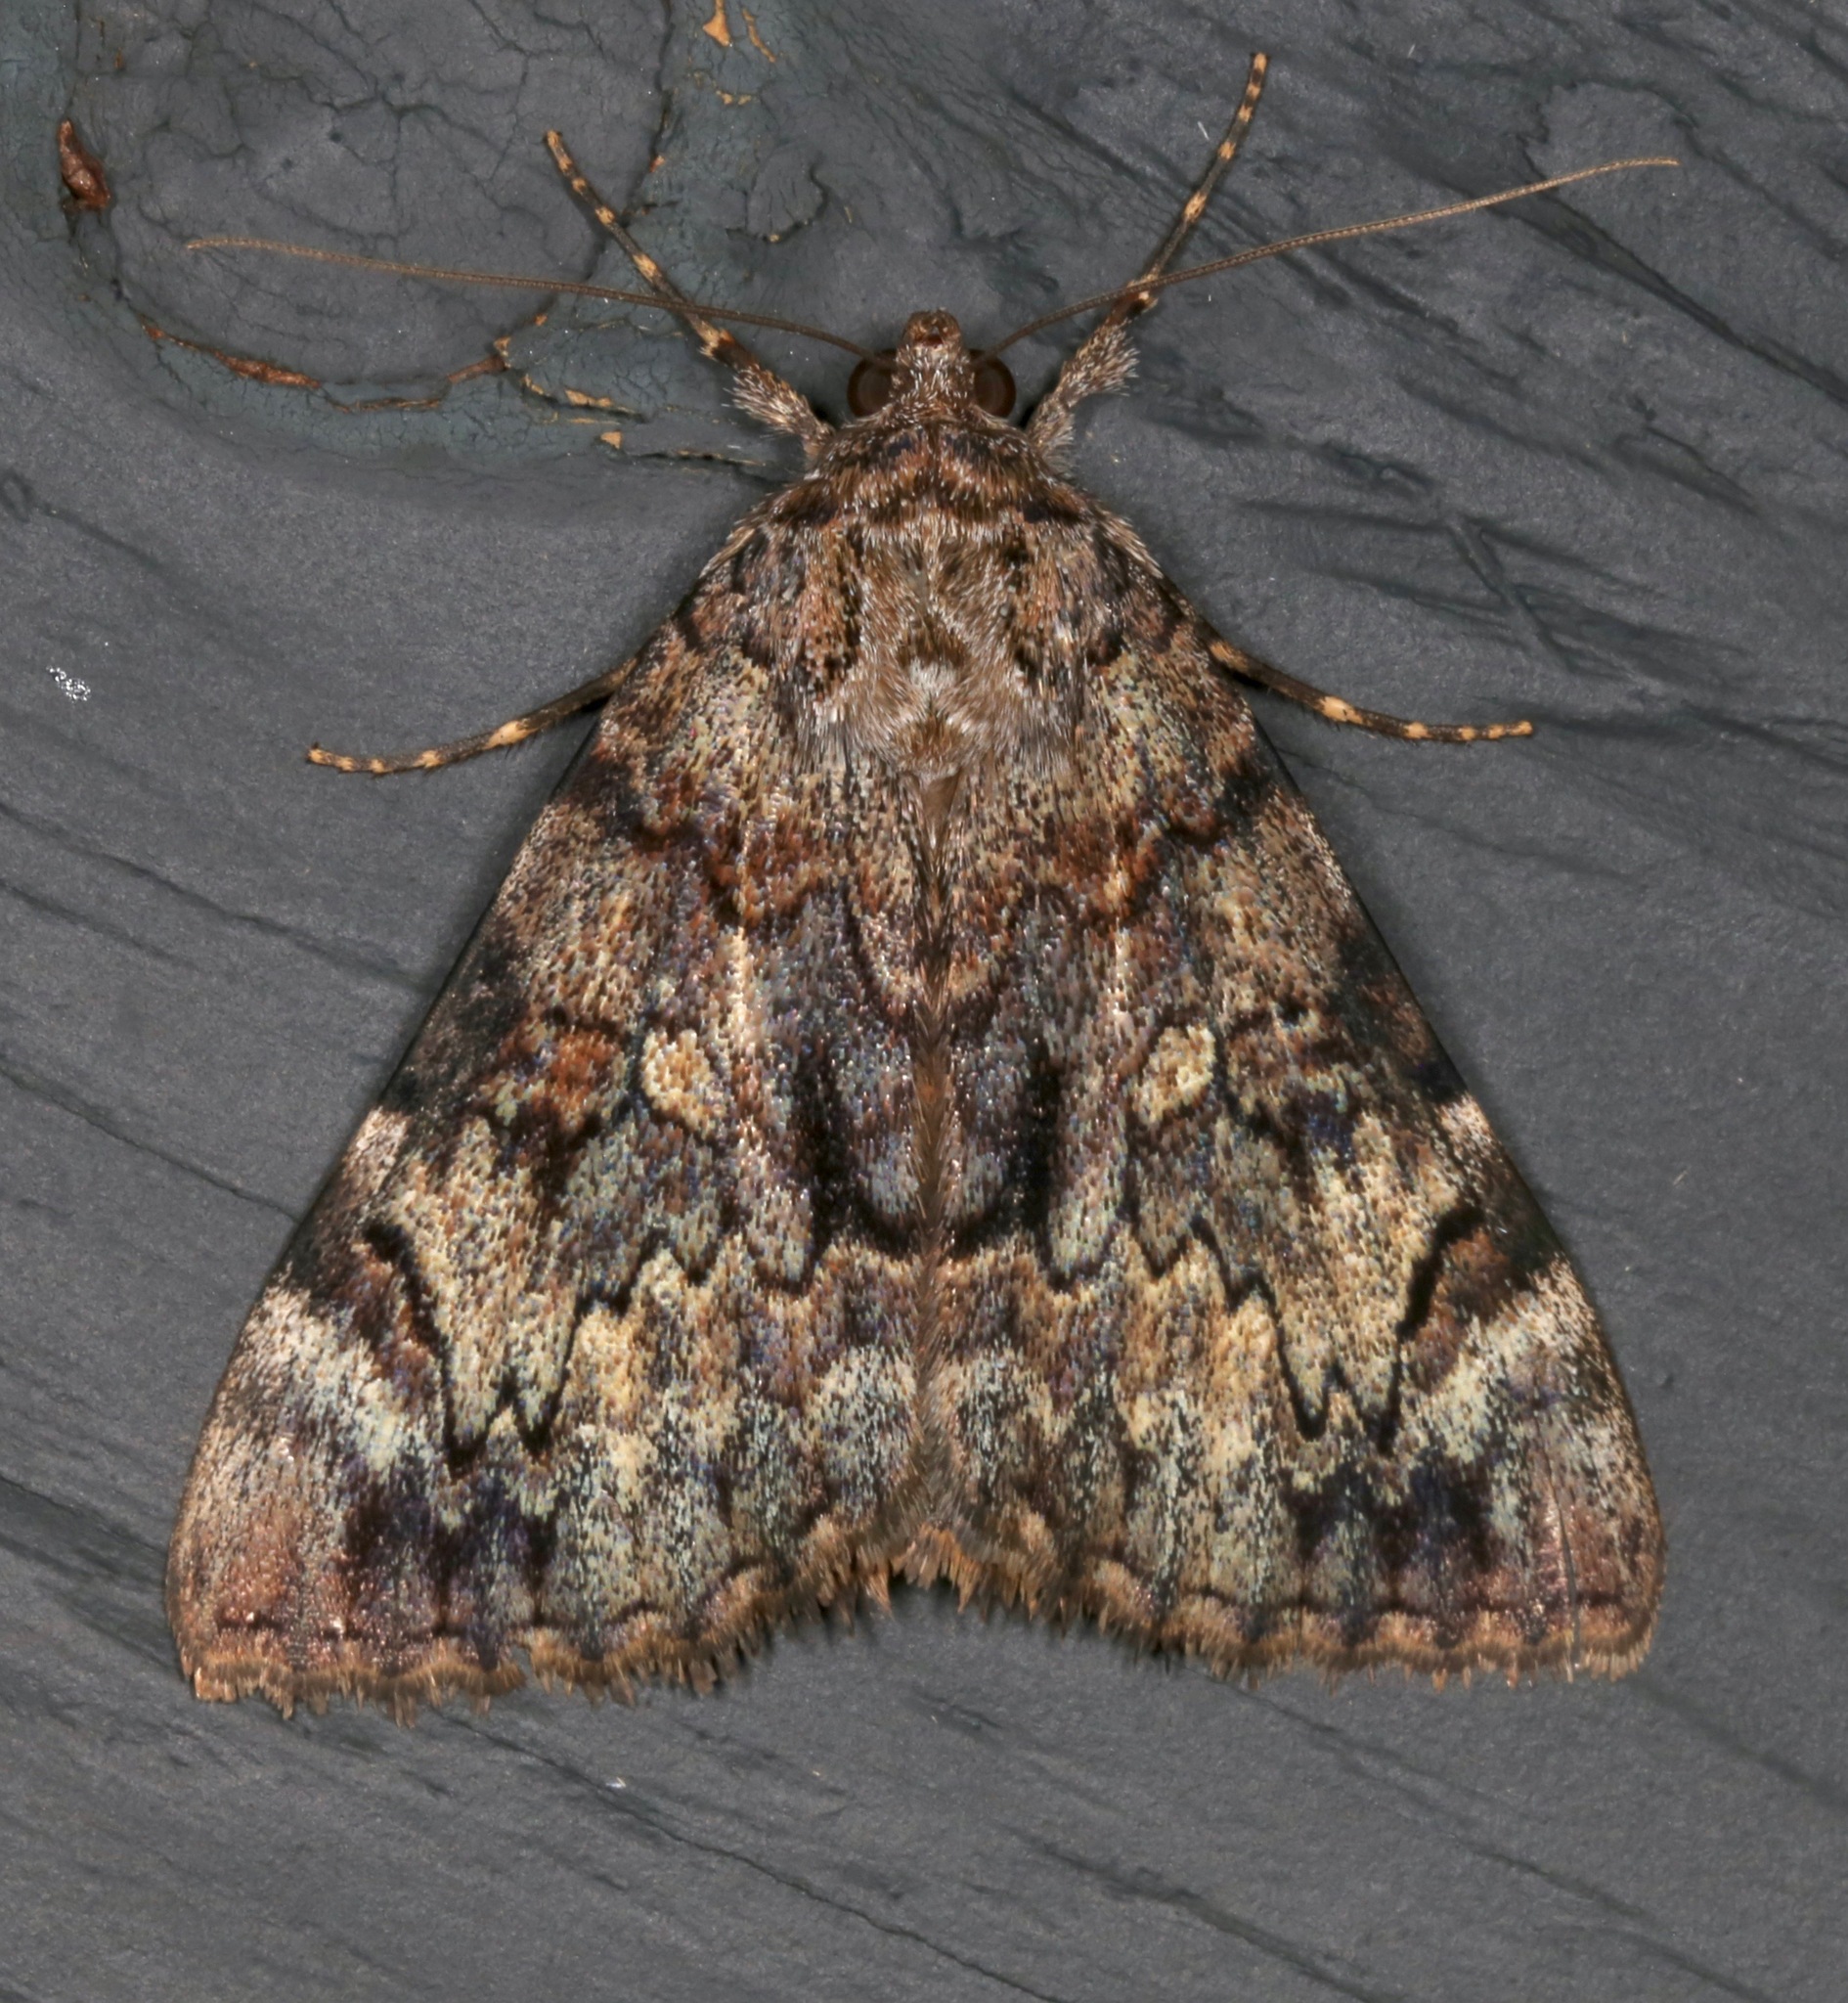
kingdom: Animalia
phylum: Arthropoda
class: Insecta
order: Lepidoptera
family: Erebidae
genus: Catocala
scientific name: Catocala desdemona
